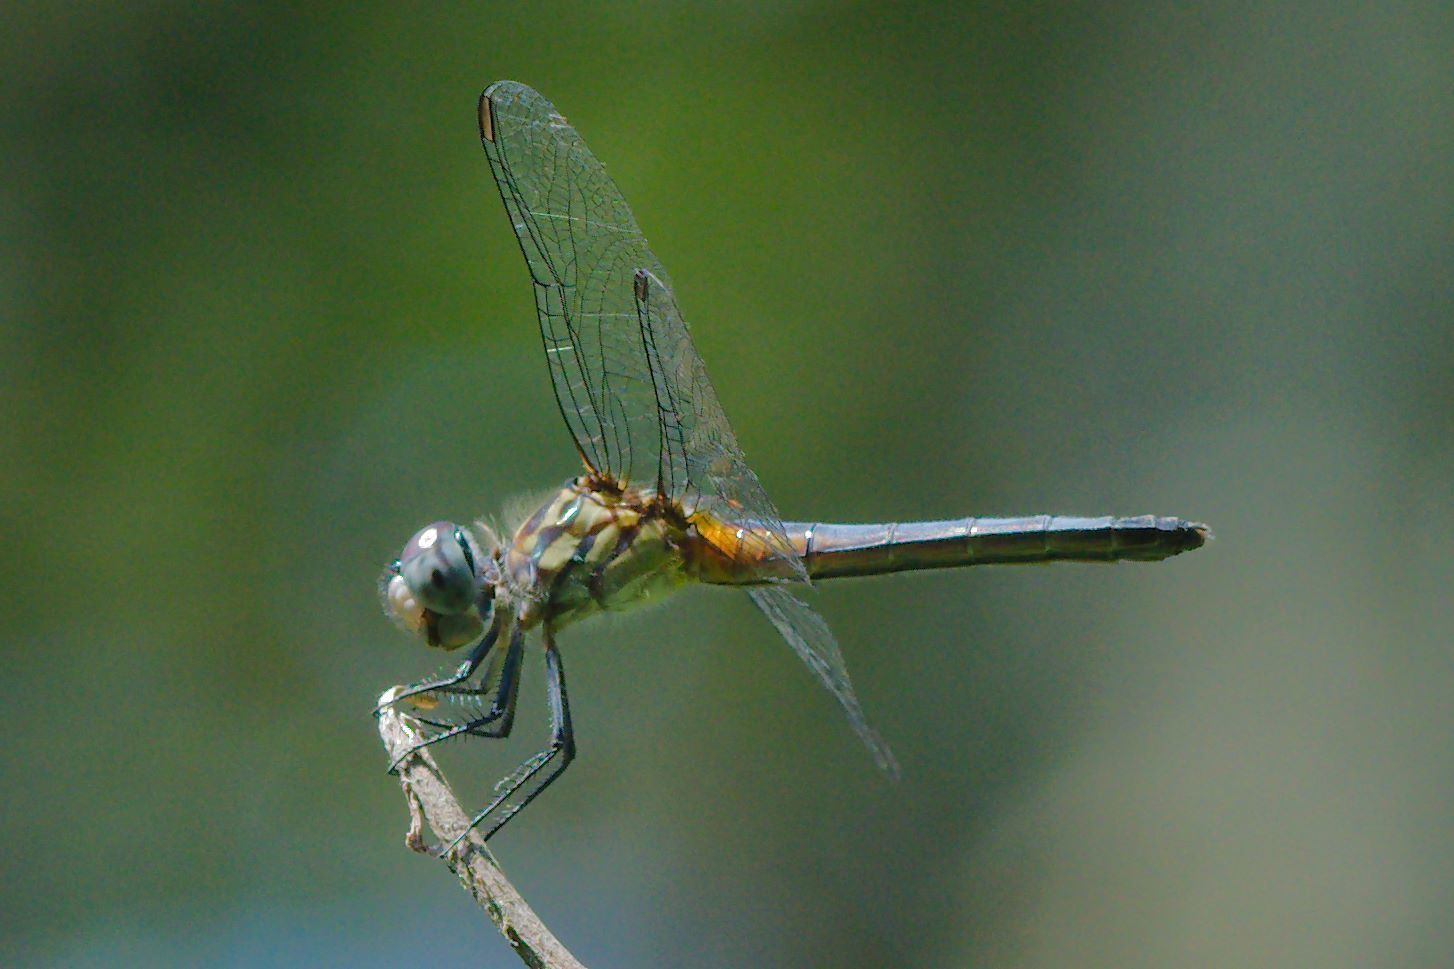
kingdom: Animalia
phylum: Arthropoda
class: Insecta
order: Odonata
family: Libellulidae
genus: Pachydiplax
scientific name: Pachydiplax longipennis
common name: Blue dasher
